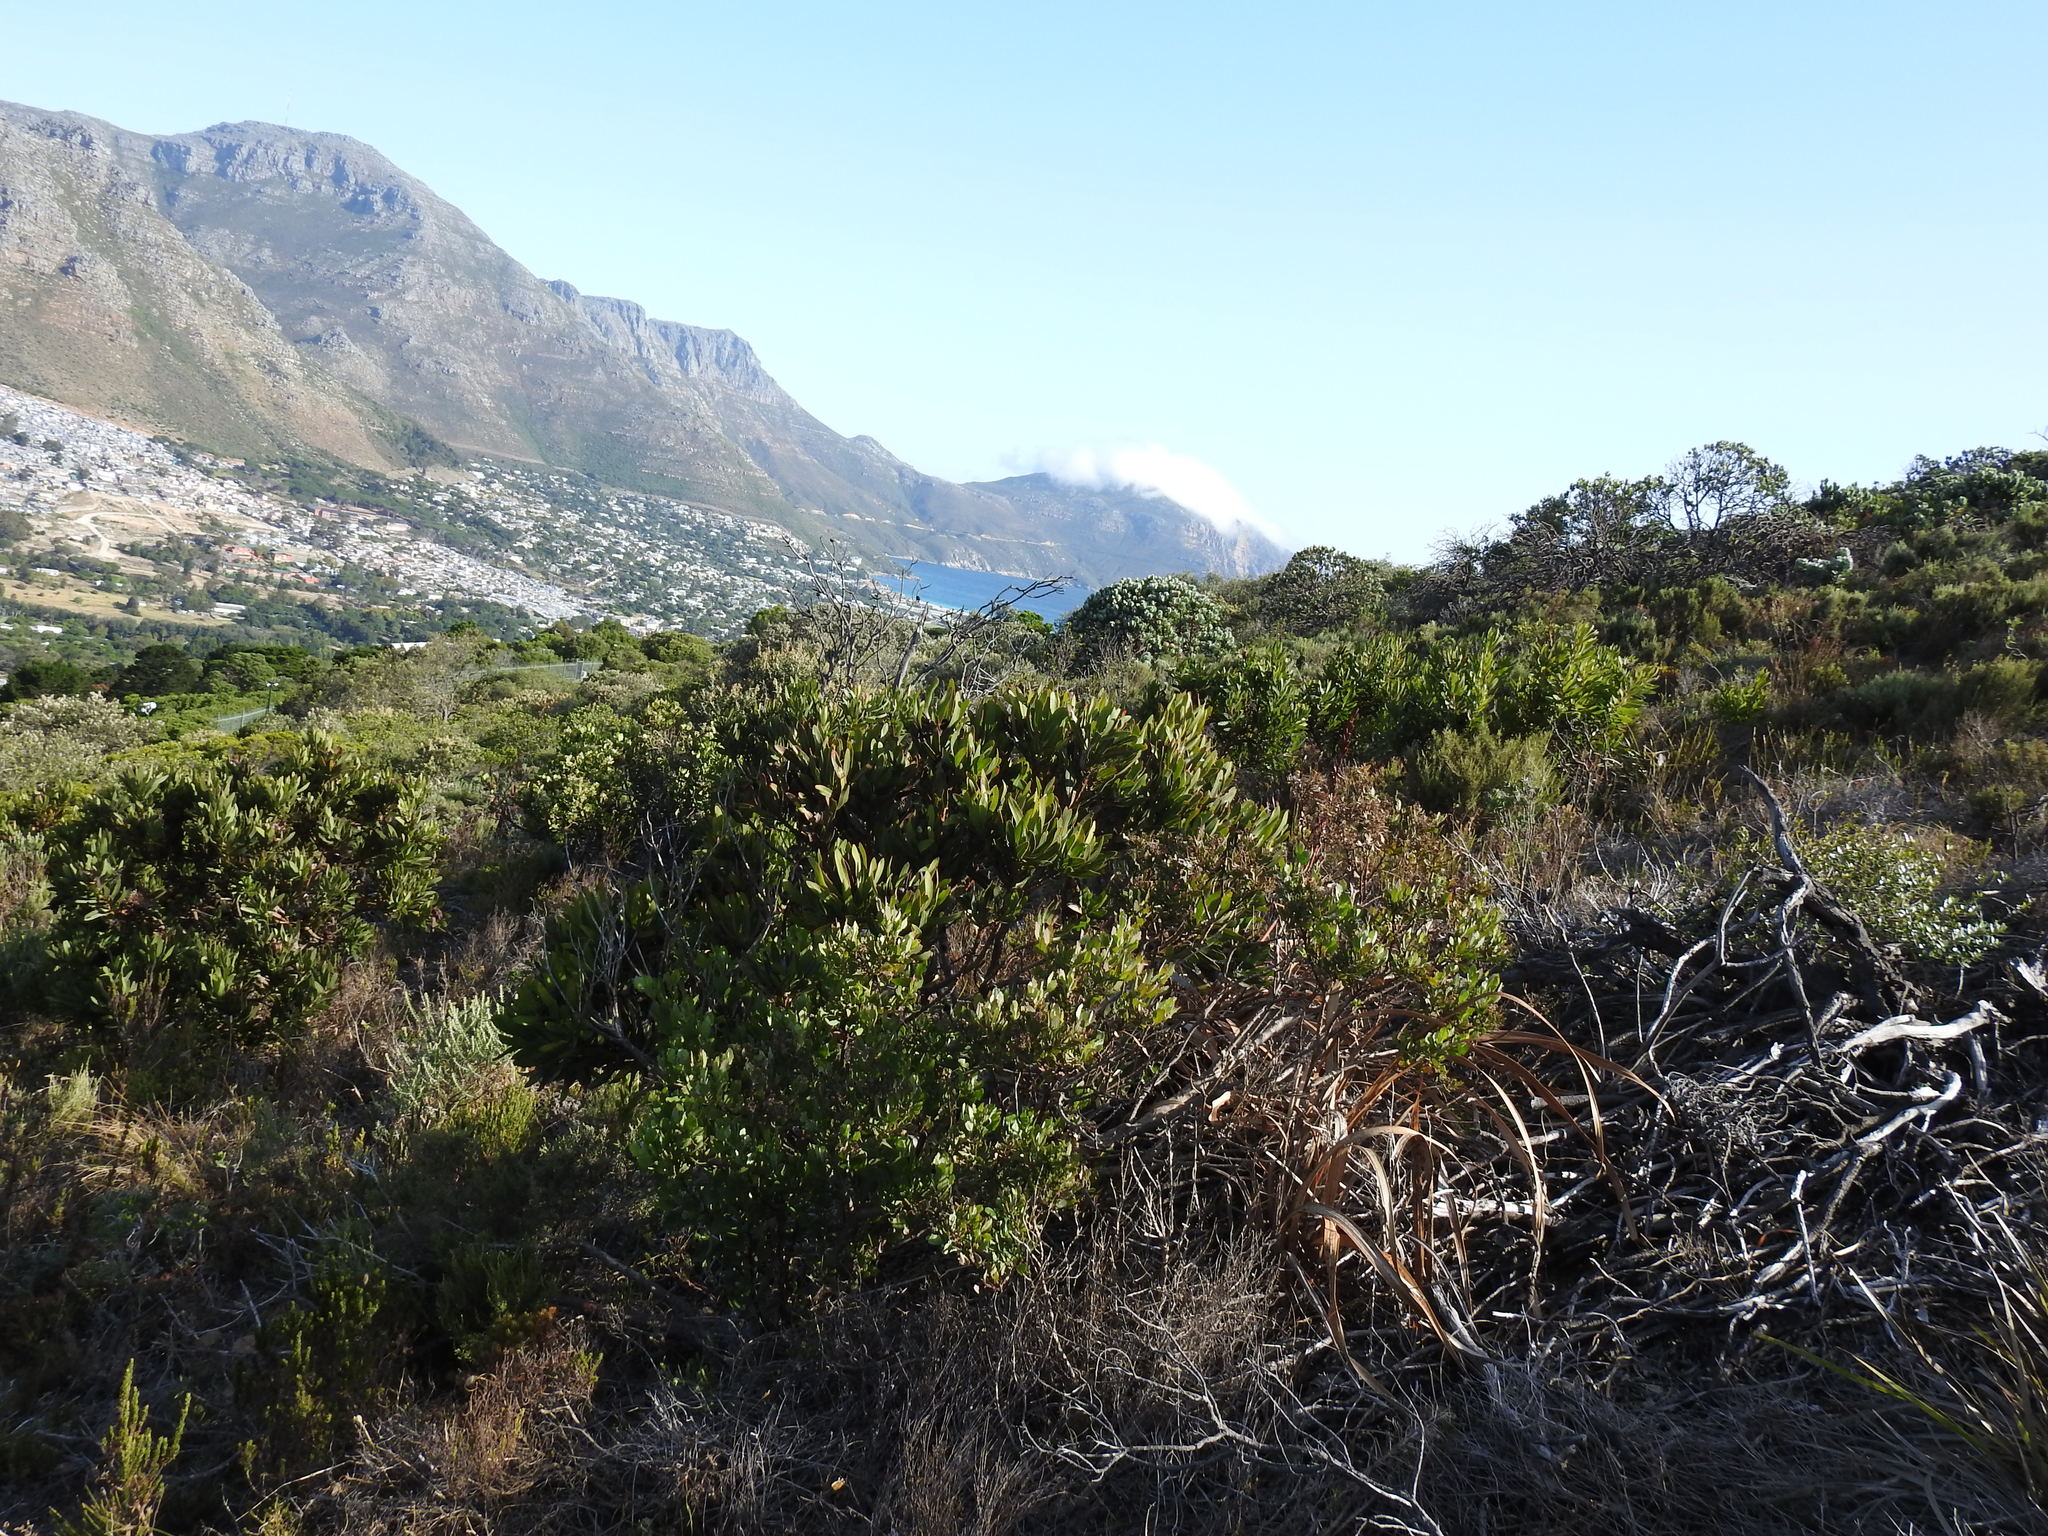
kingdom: Plantae
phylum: Tracheophyta
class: Magnoliopsida
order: Proteales
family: Proteaceae
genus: Protea
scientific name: Protea lepidocarpodendron
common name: Black-bearded protea
